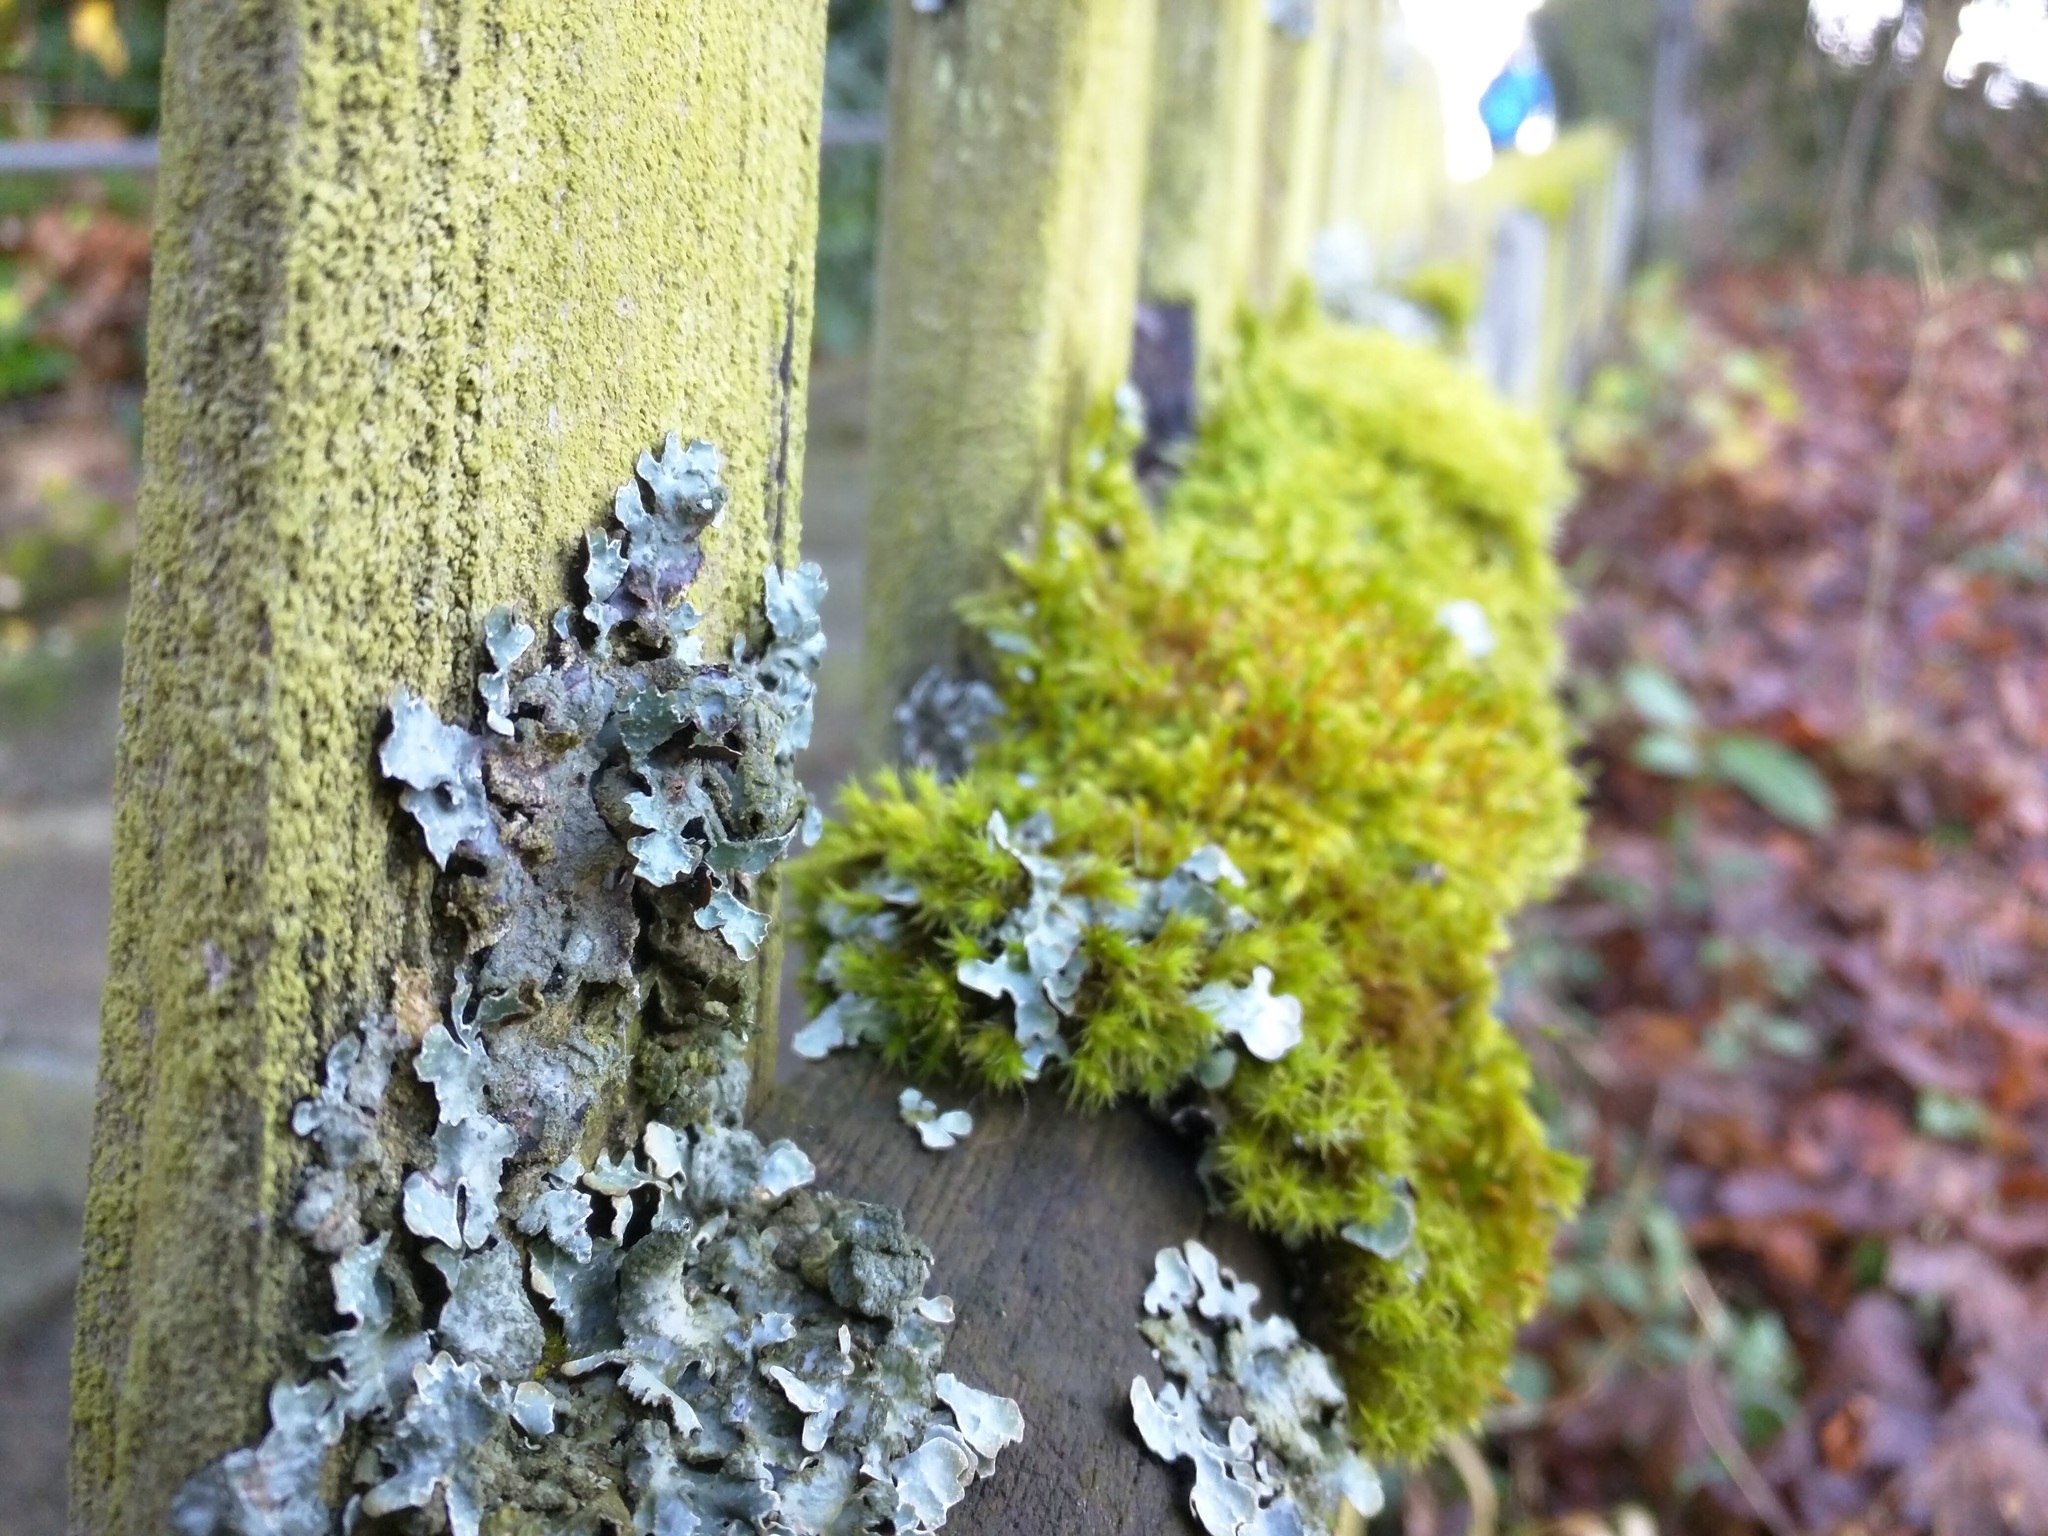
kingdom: Fungi
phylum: Ascomycota
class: Lecanoromycetes
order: Lecanorales
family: Parmeliaceae
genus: Parmelia
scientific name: Parmelia sulcata
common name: Netted shield lichen
